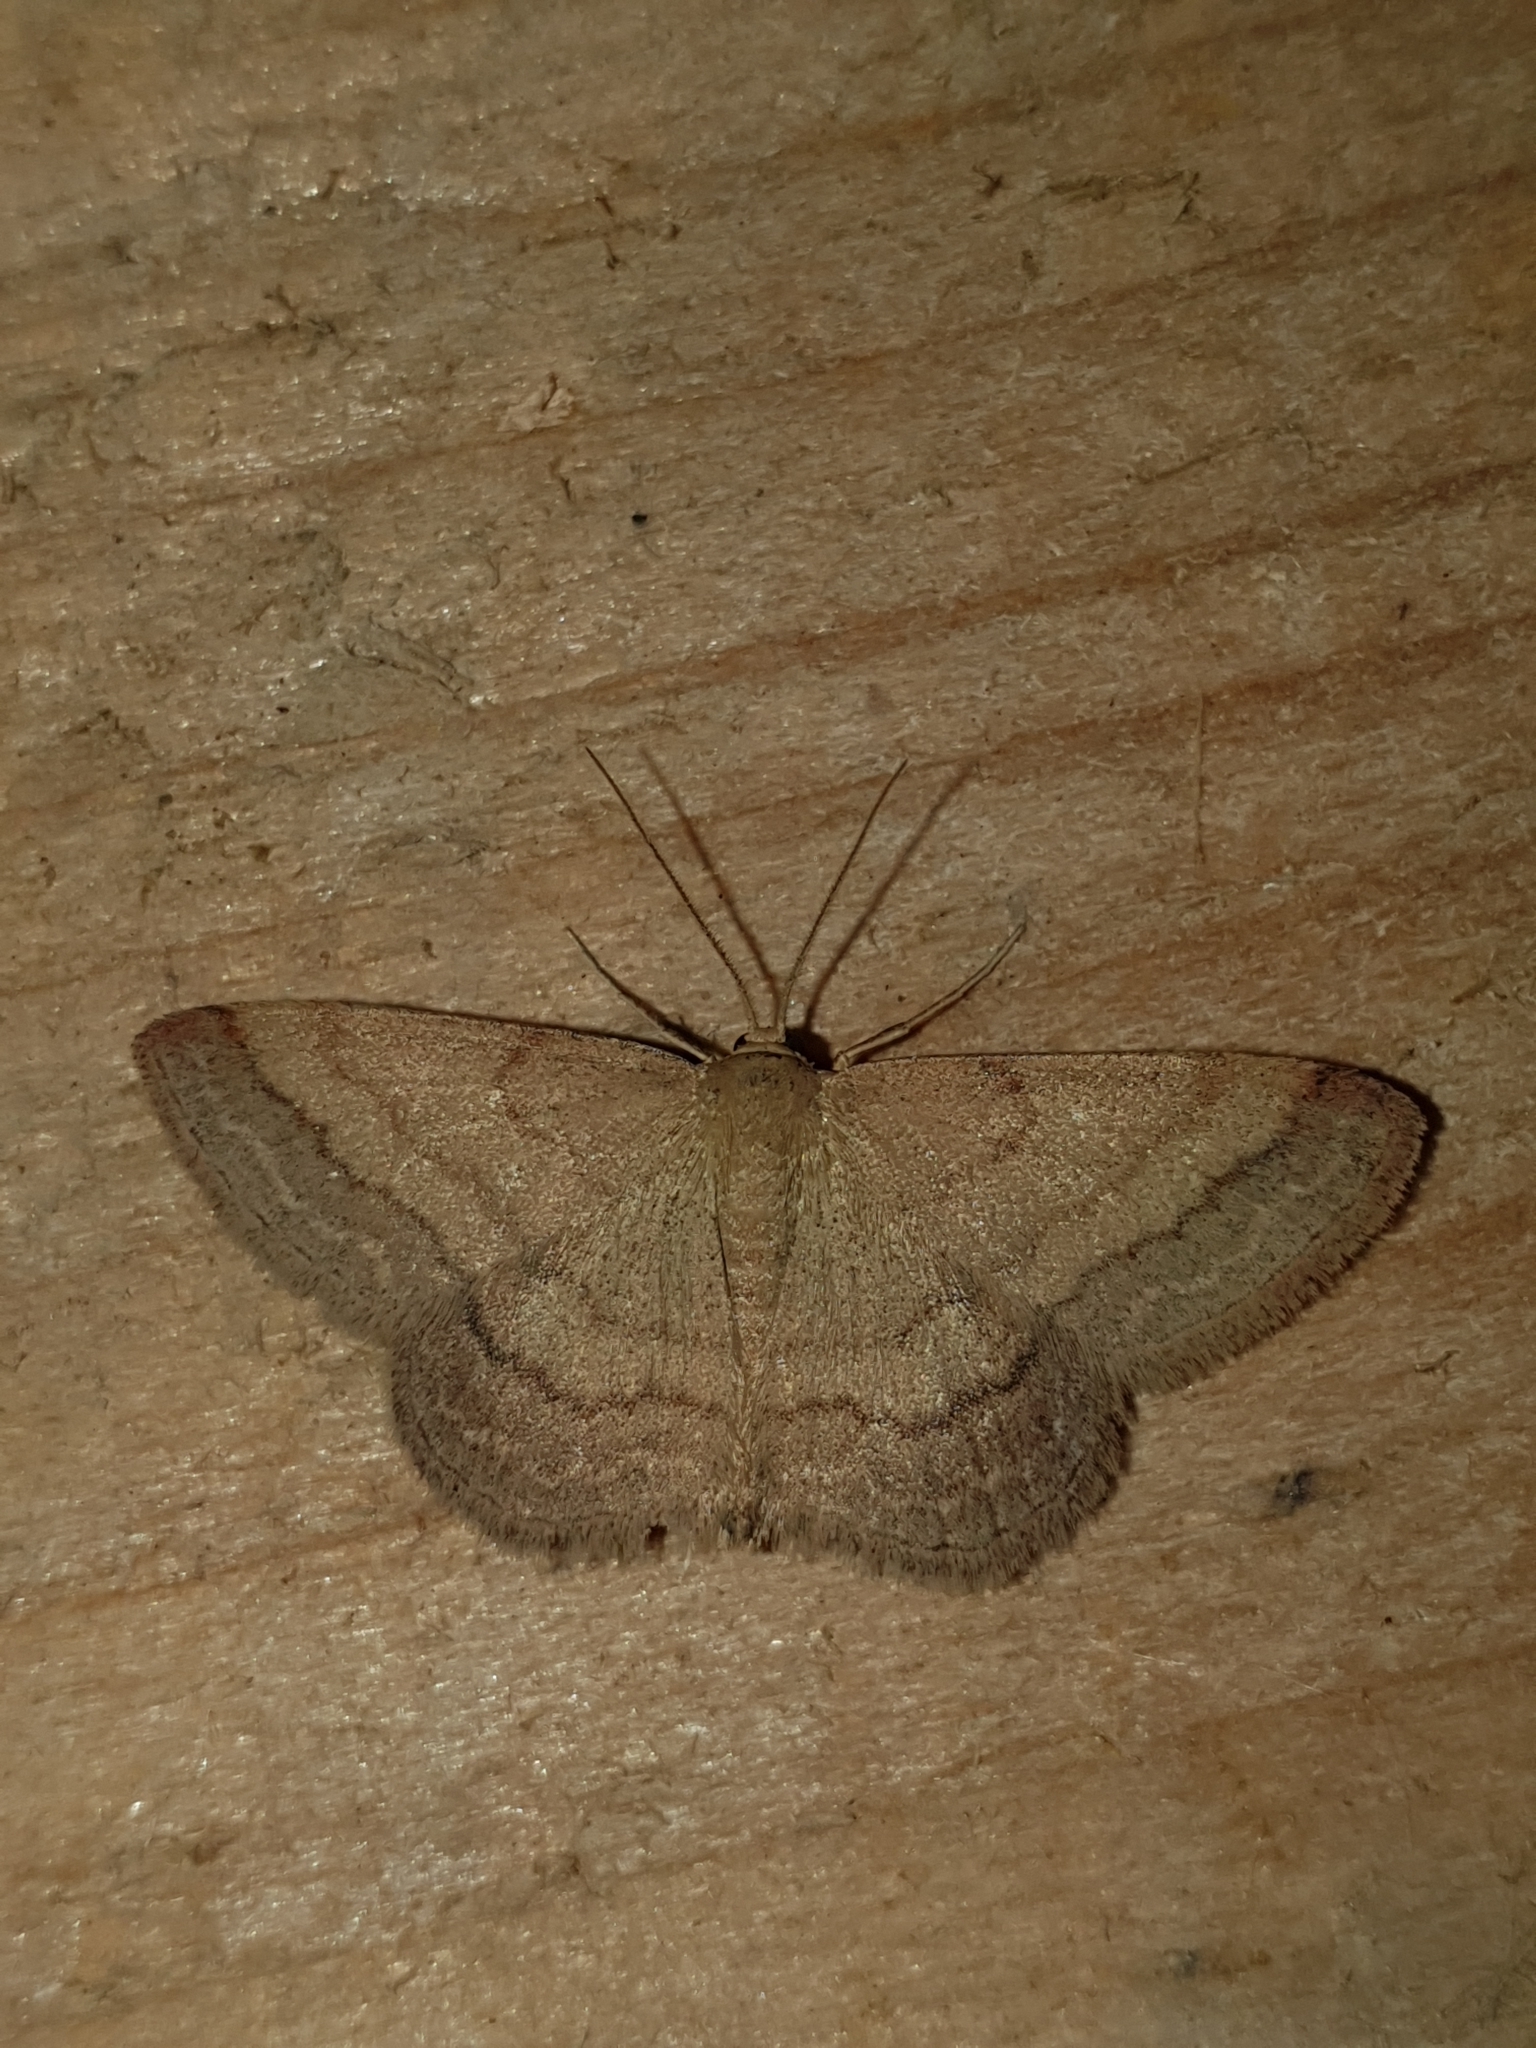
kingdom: Animalia
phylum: Arthropoda
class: Insecta
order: Lepidoptera
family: Geometridae
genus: Scopula
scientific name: Scopula rubiginata
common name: Tawny wave
